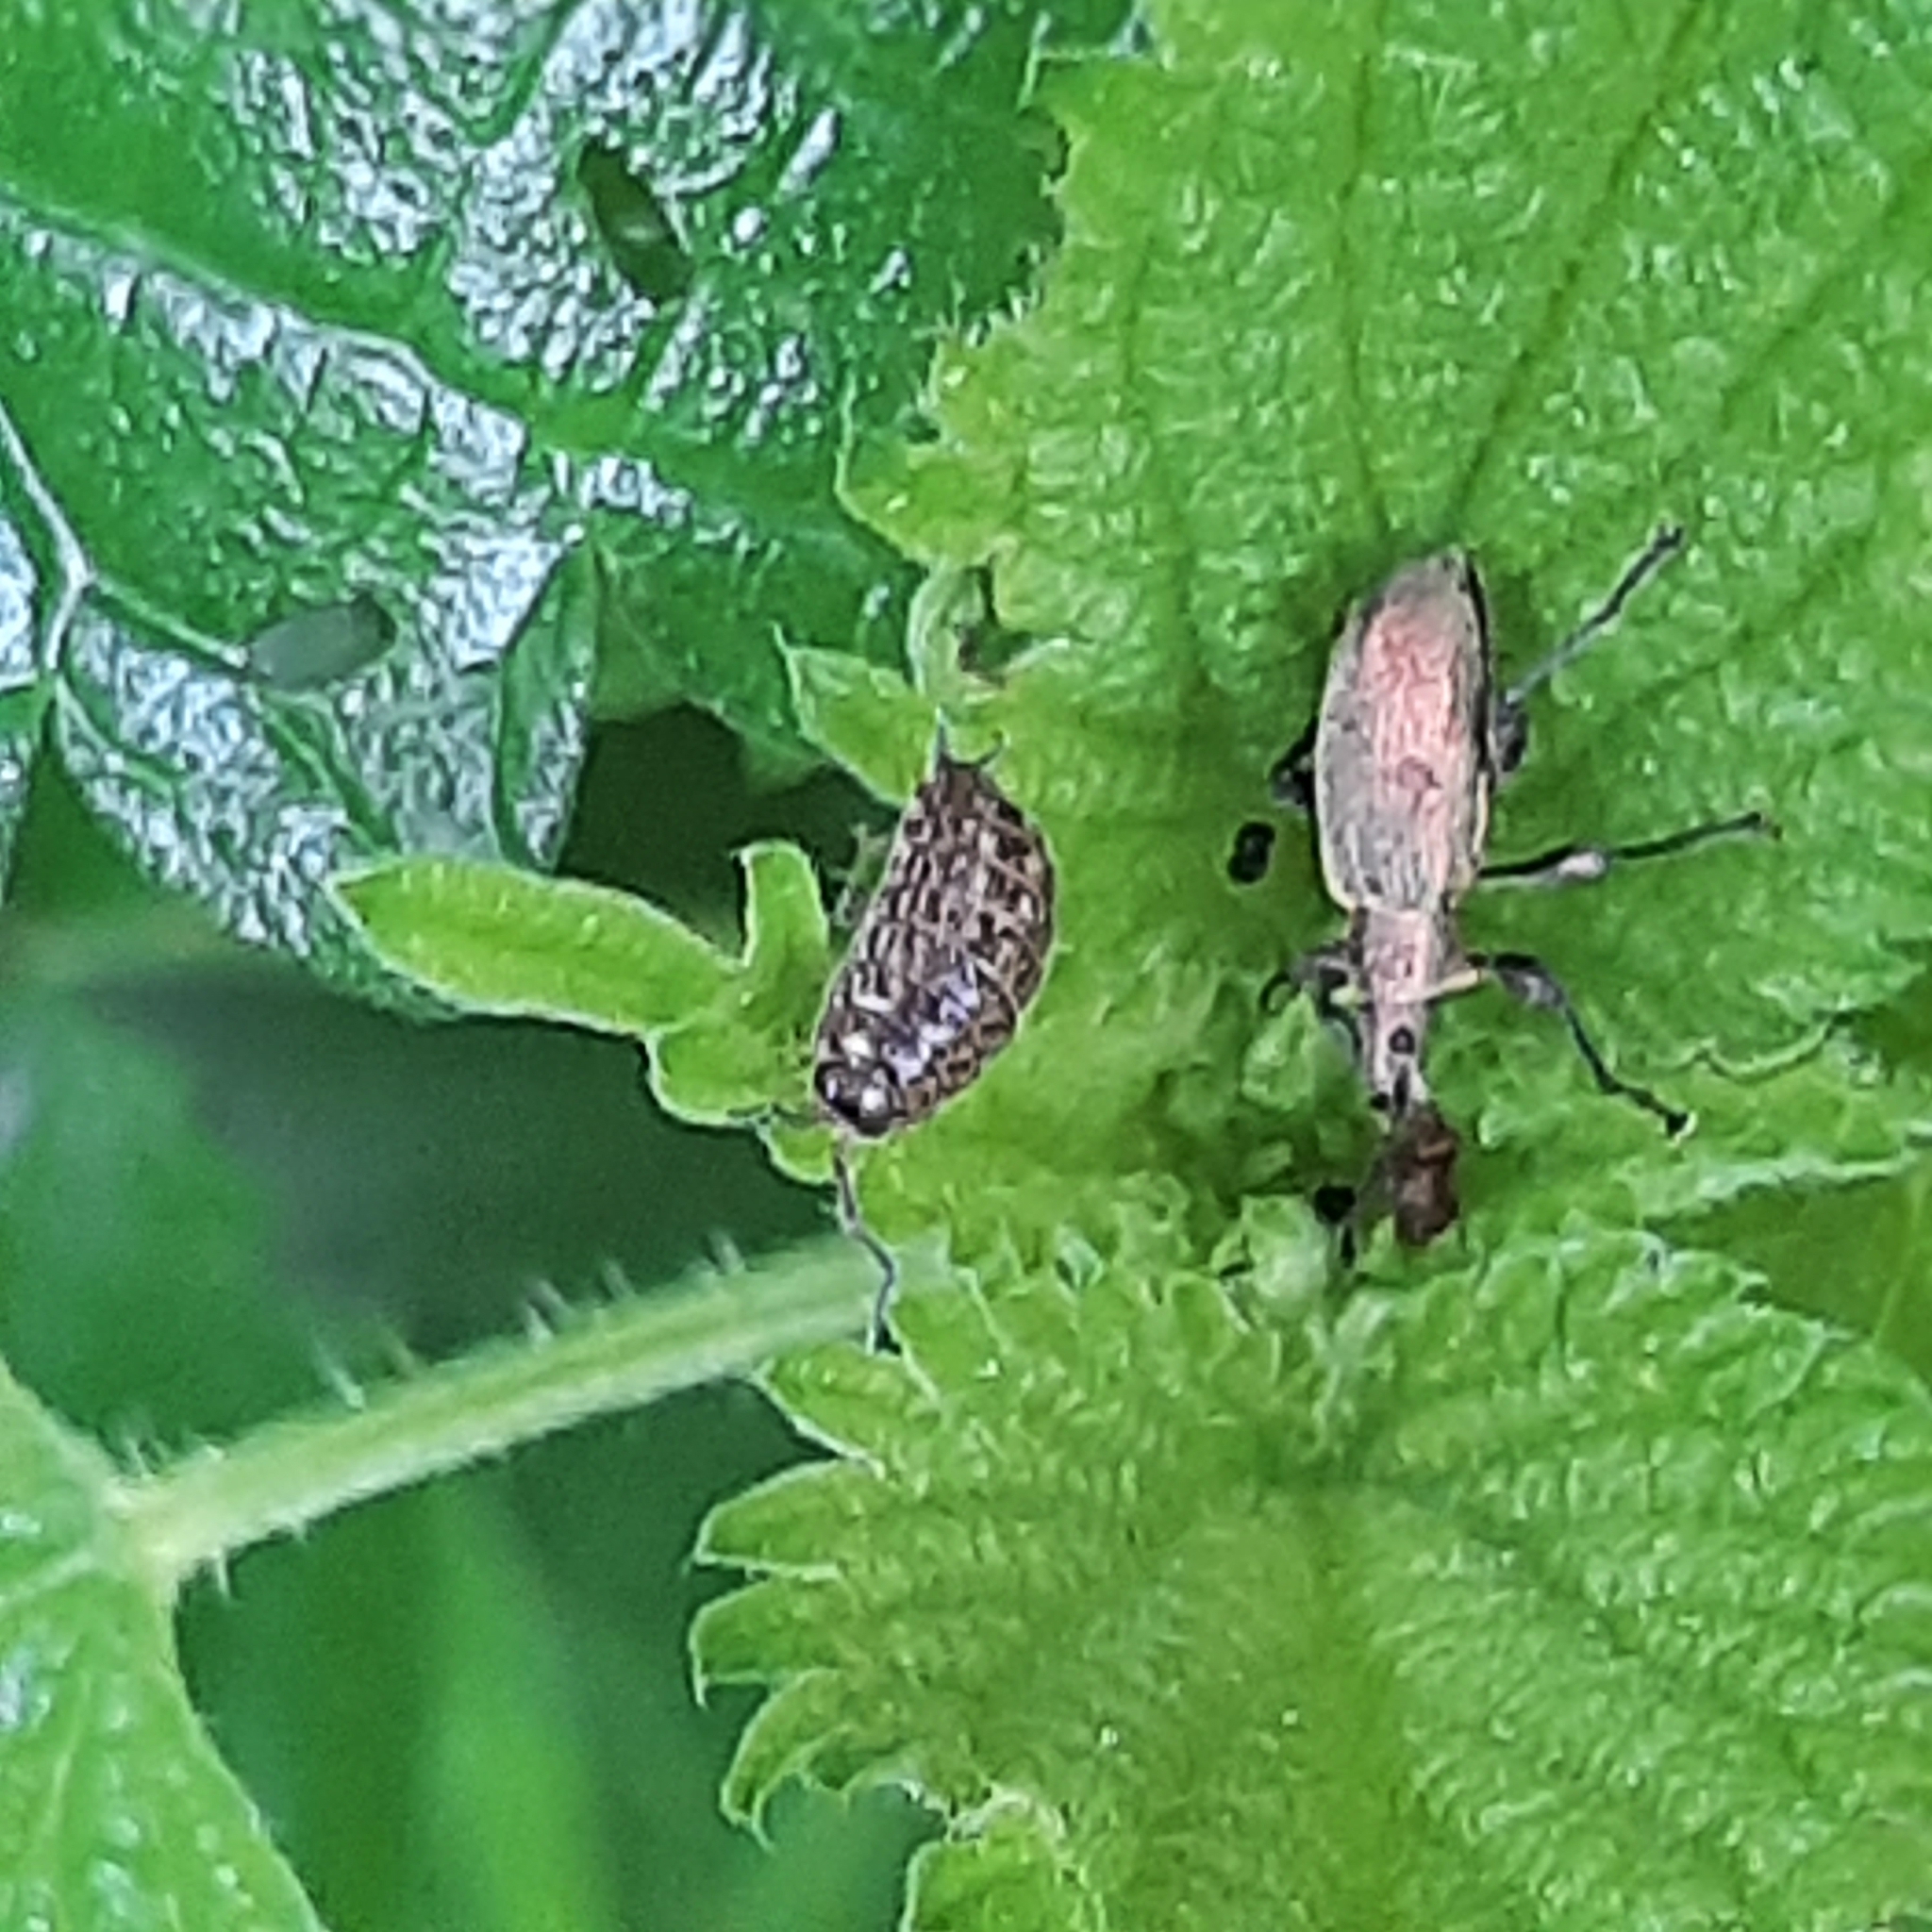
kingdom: Animalia
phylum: Arthropoda
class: Malacostraca
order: Isopoda
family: Philosciidae
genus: Philoscia
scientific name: Philoscia muscorum
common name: Common striped woodlouse
